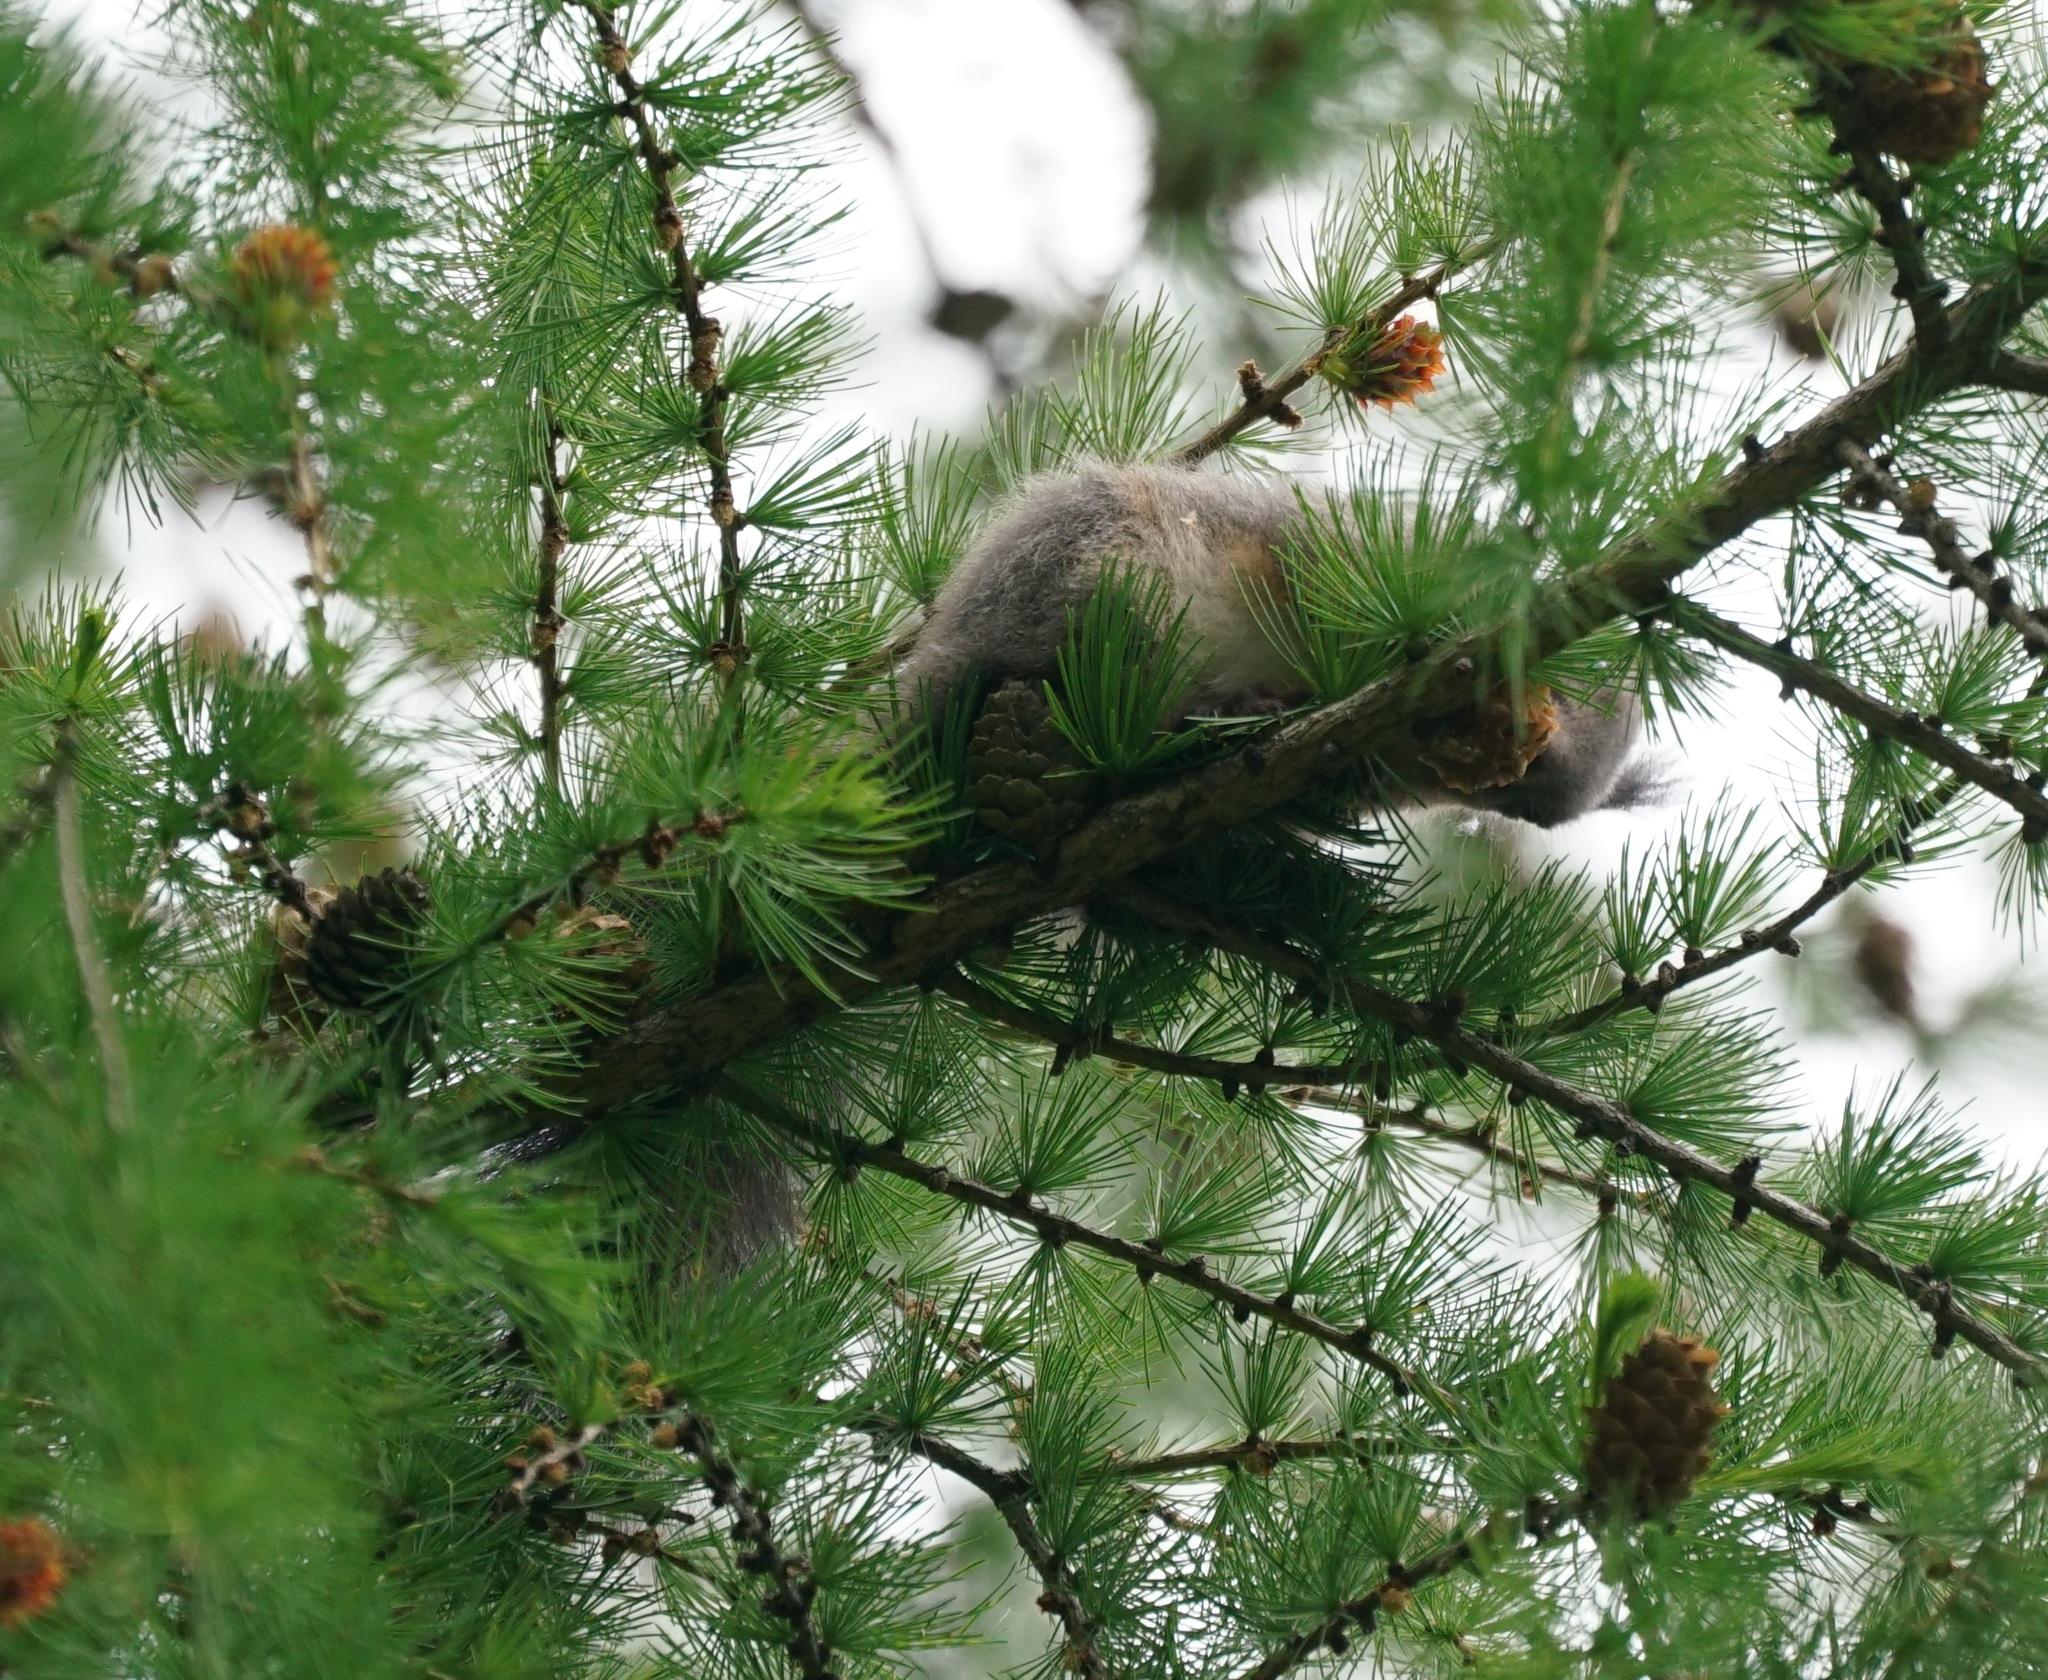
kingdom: Animalia
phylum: Chordata
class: Mammalia
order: Rodentia
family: Sciuridae
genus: Sciurus
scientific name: Sciurus vulgaris
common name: Eurasian red squirrel
